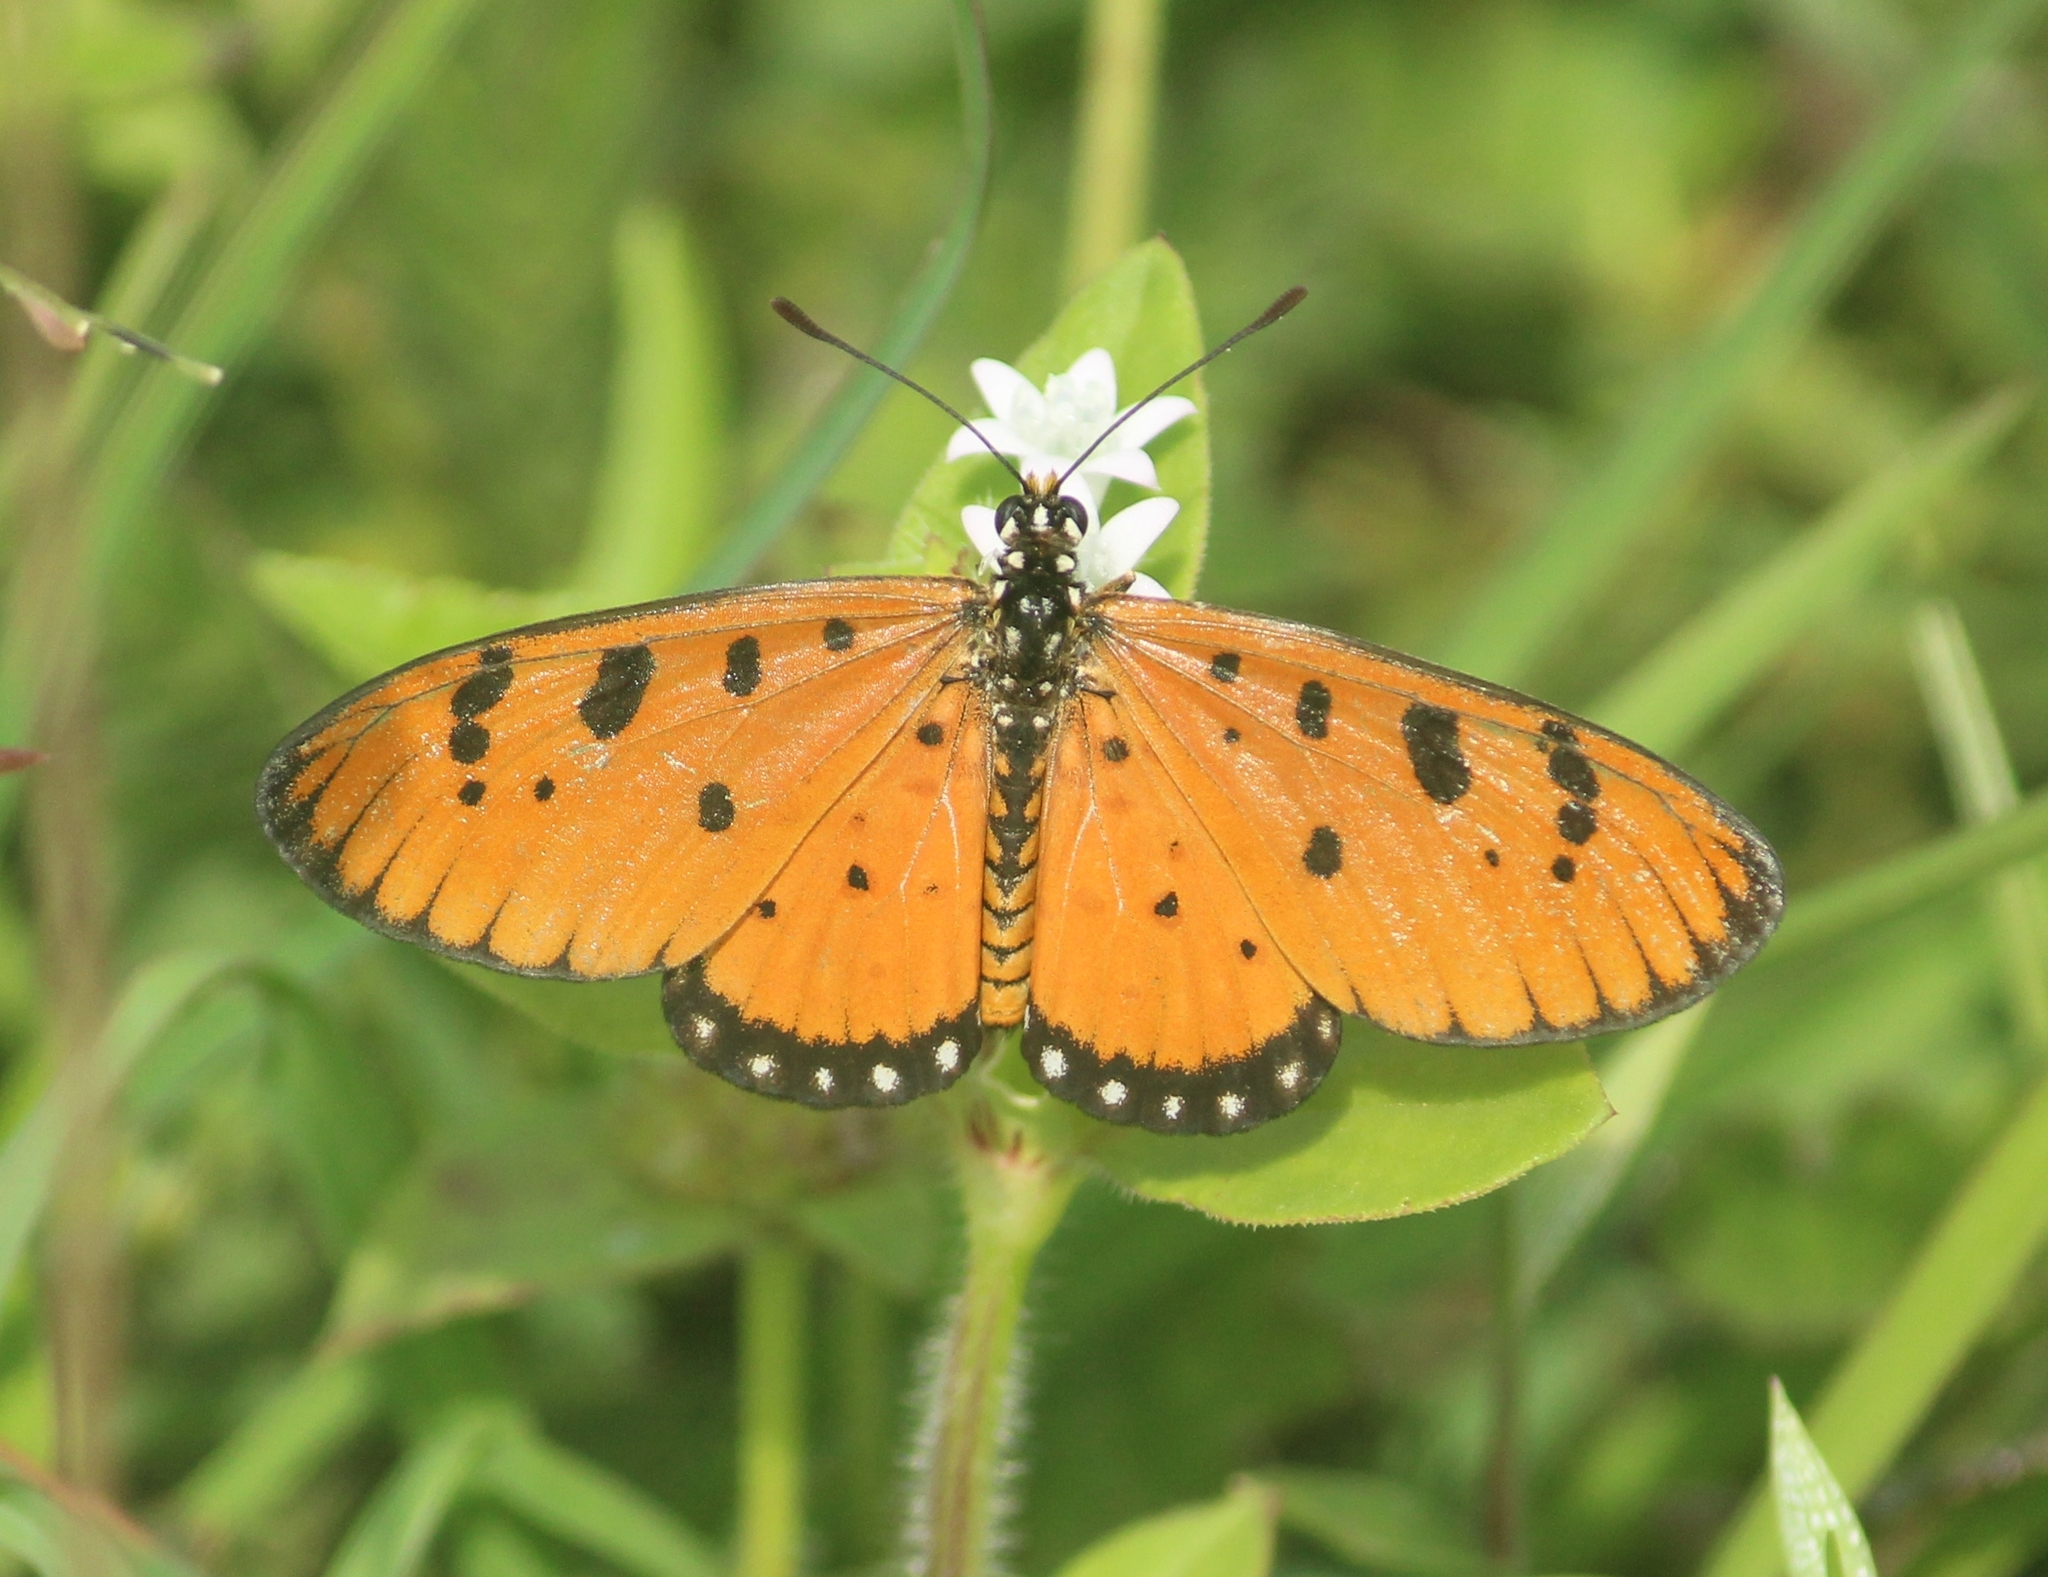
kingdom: Animalia
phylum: Arthropoda
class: Insecta
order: Lepidoptera
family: Nymphalidae
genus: Acraea
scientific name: Acraea terpsicore
